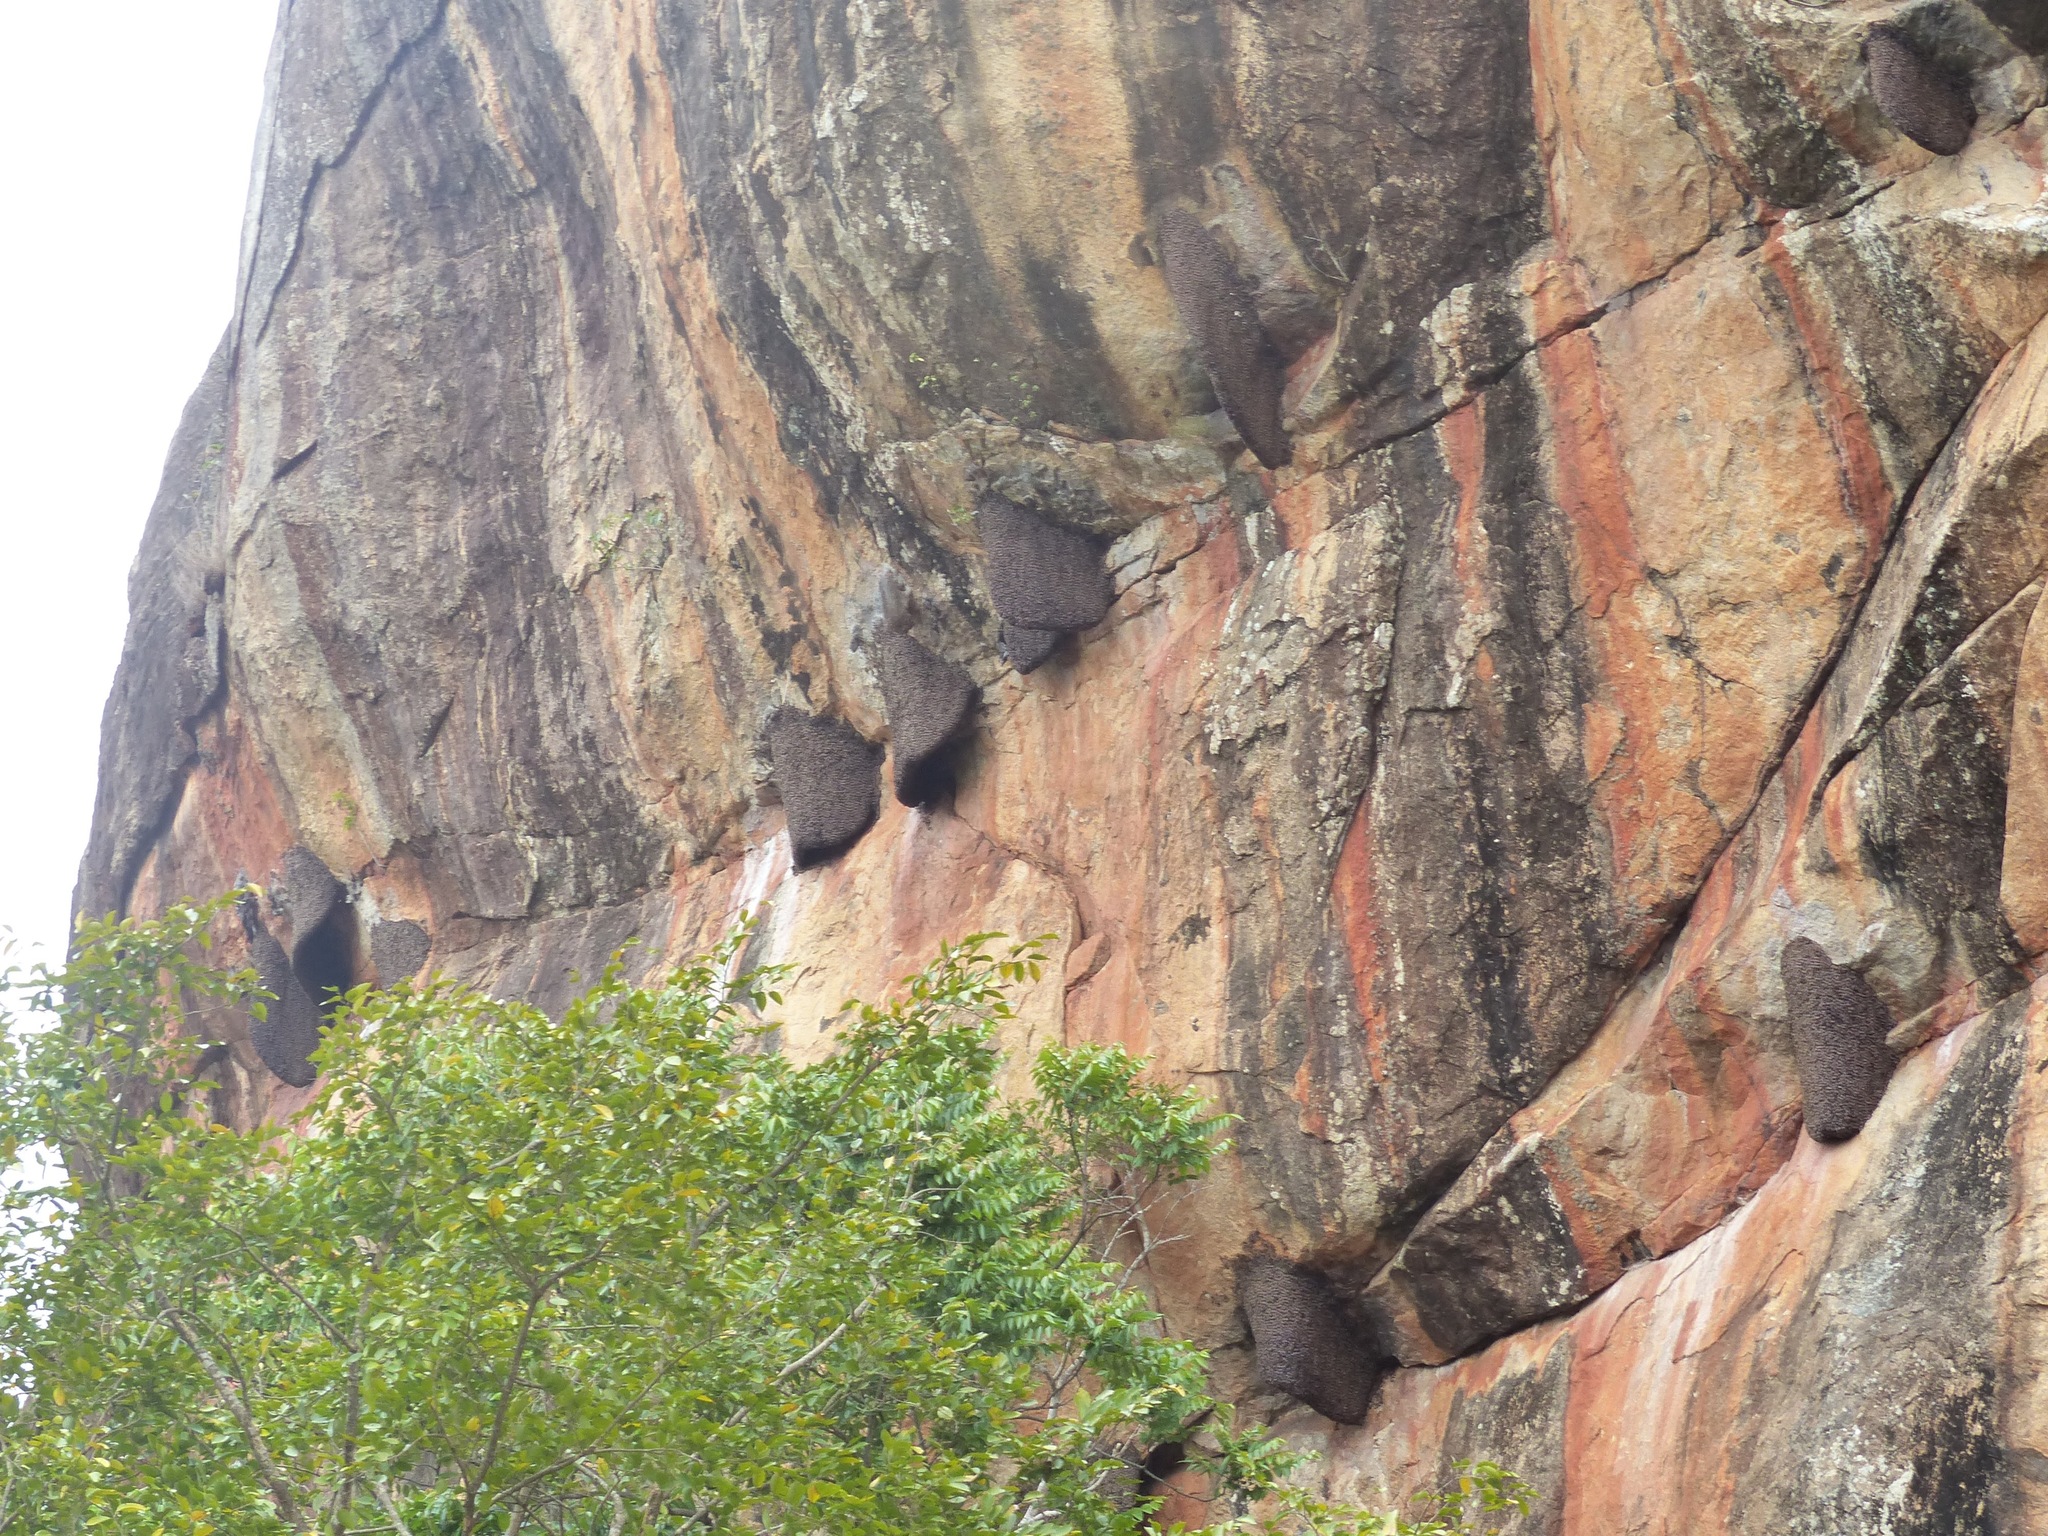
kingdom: Animalia
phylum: Arthropoda
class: Insecta
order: Hymenoptera
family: Apidae
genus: Apis
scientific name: Apis dorsata
